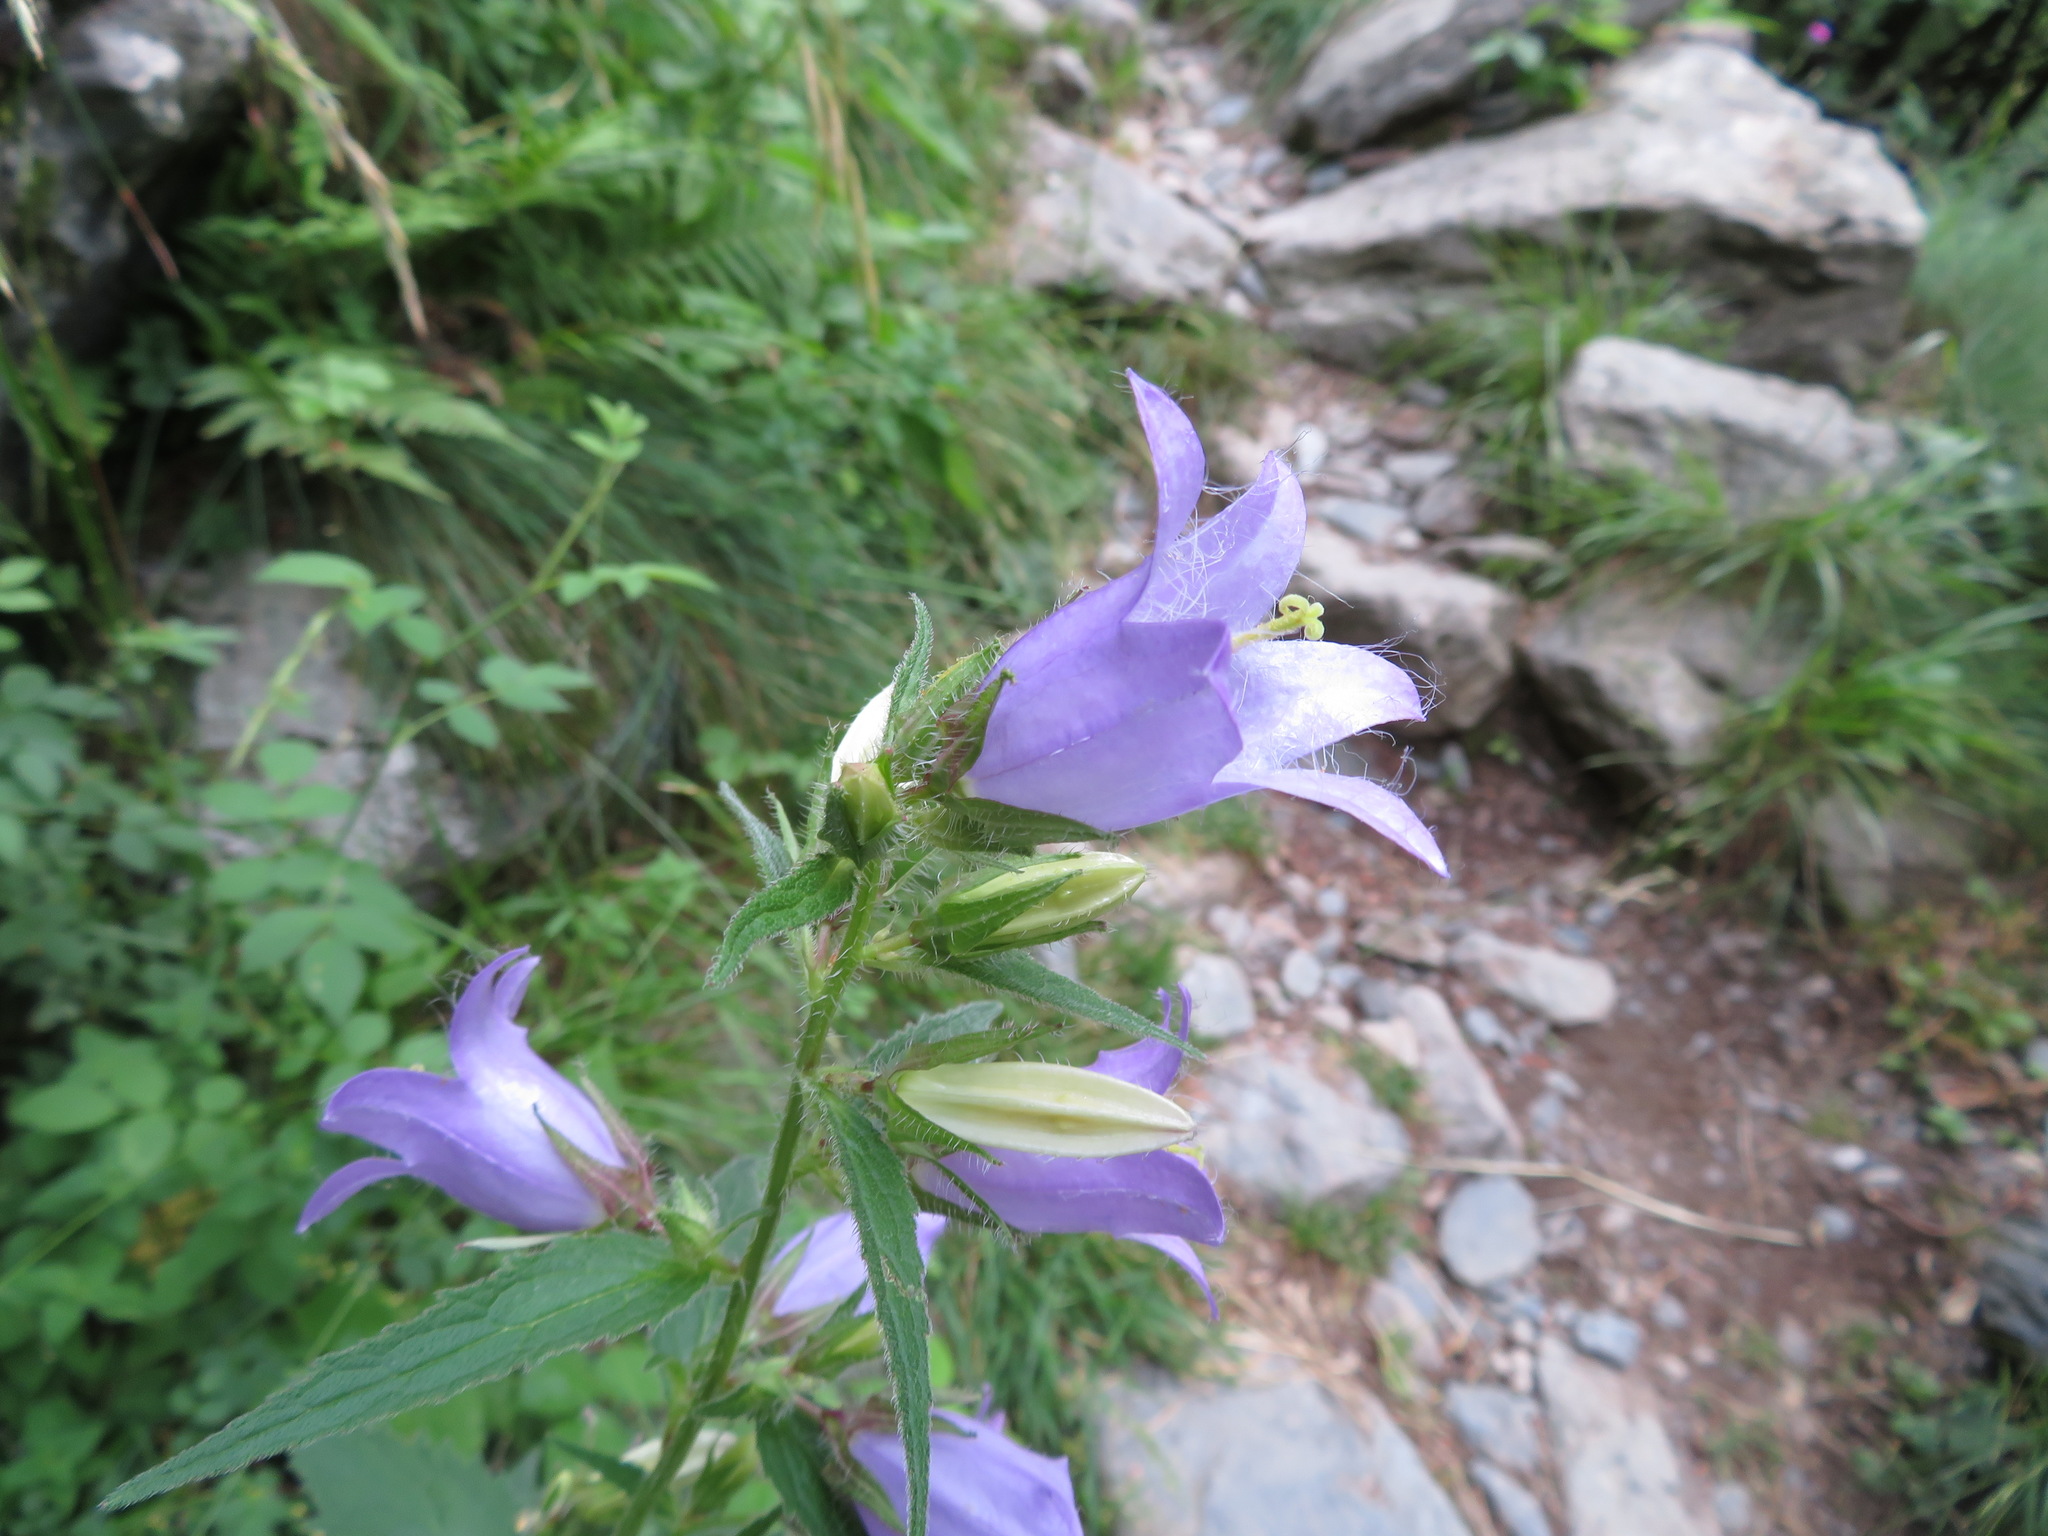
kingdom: Plantae
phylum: Tracheophyta
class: Magnoliopsida
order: Asterales
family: Campanulaceae
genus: Campanula
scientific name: Campanula trachelium
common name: Nettle-leaved bellflower
